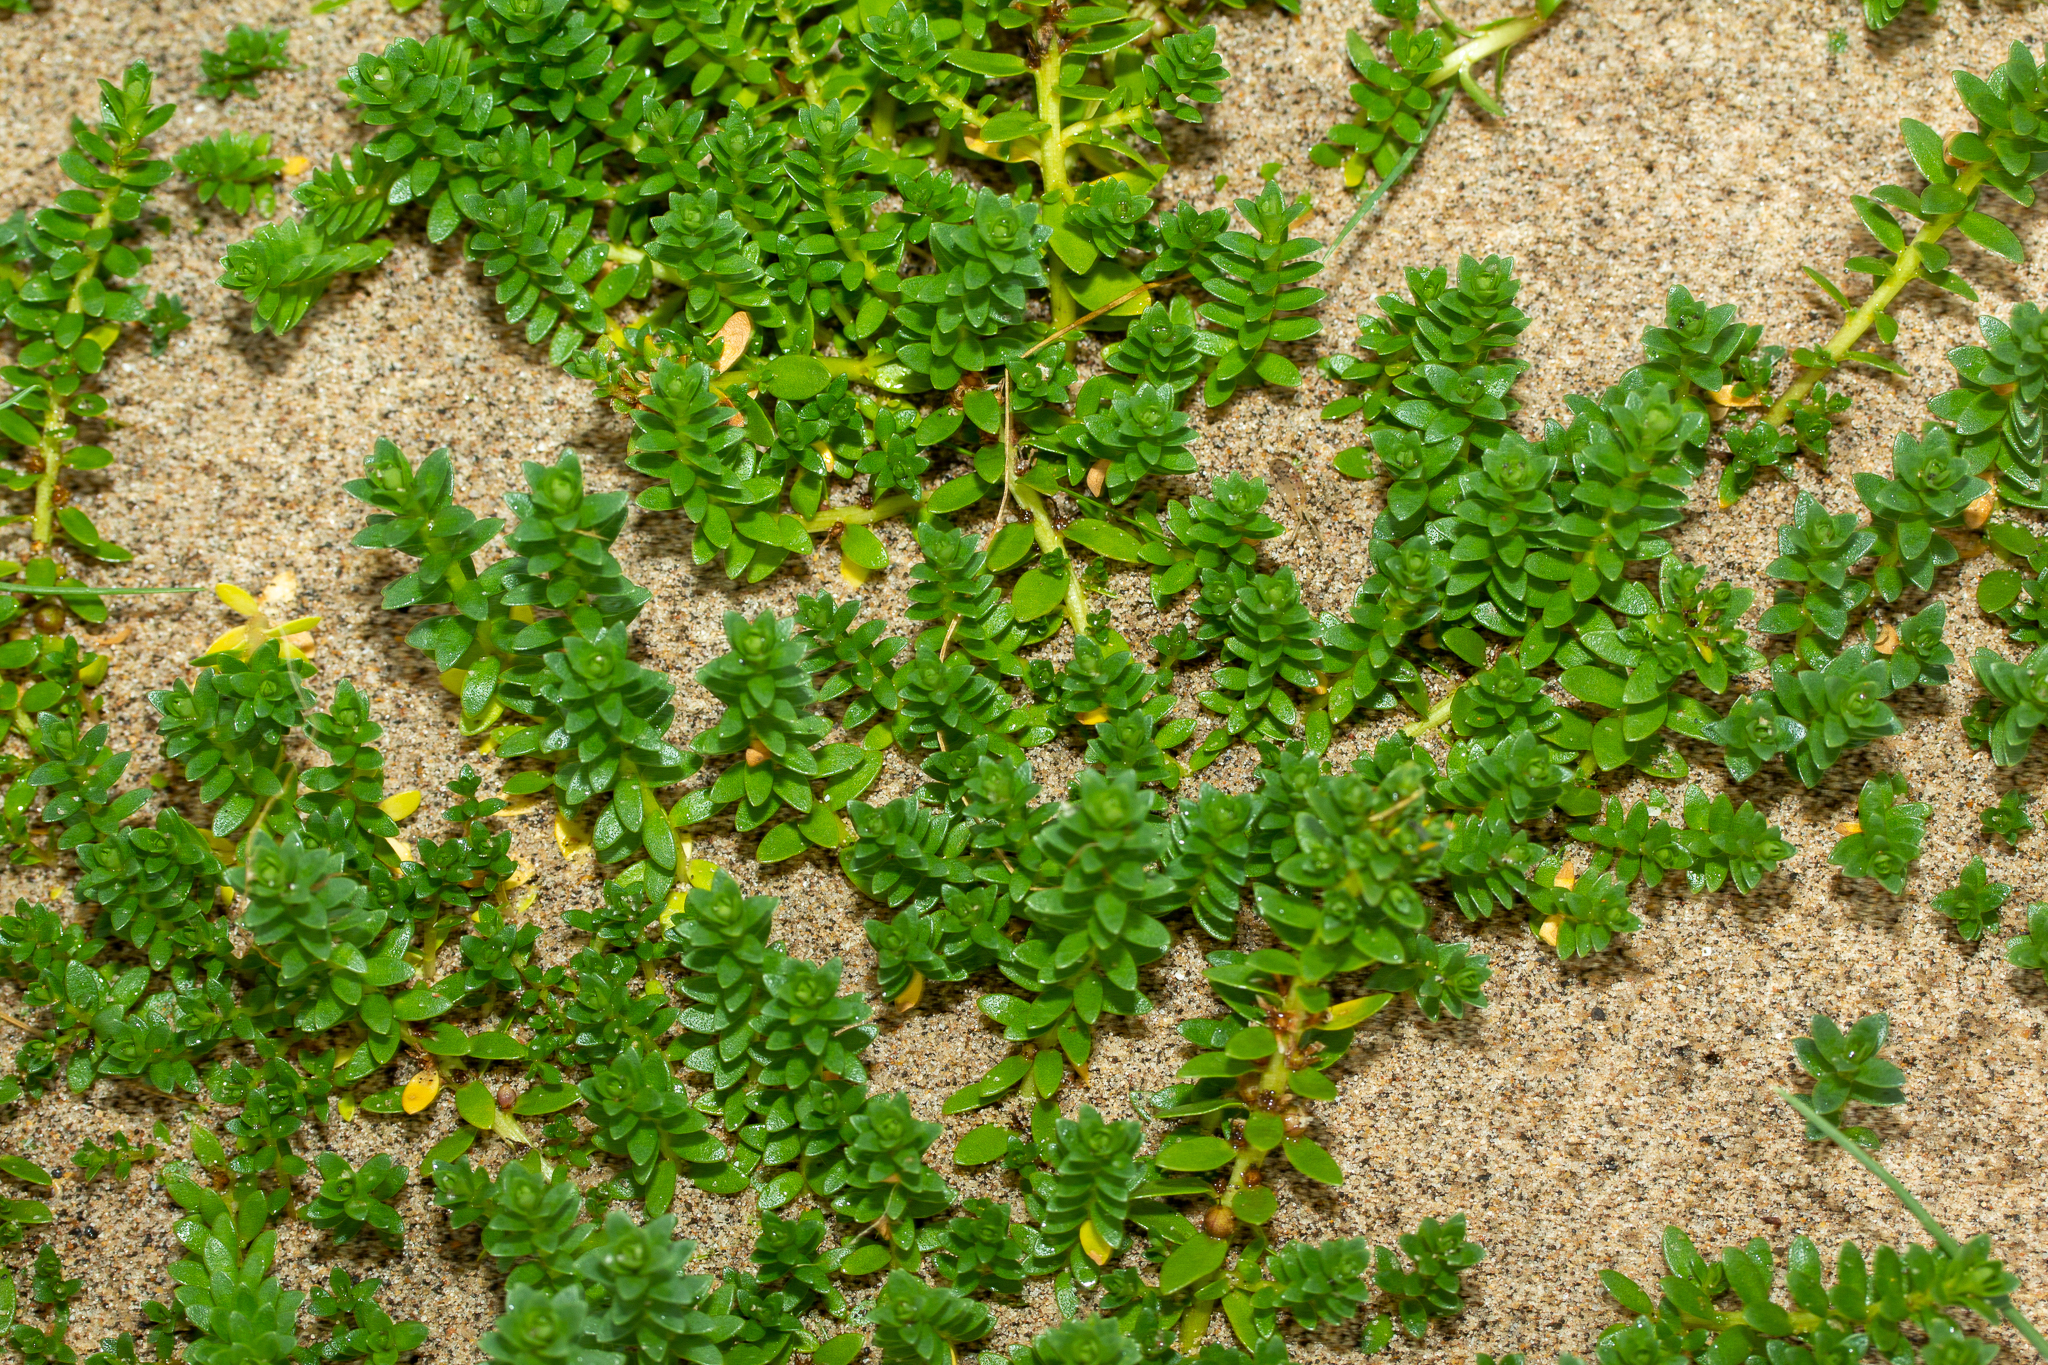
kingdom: Plantae
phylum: Tracheophyta
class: Magnoliopsida
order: Ericales
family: Primulaceae
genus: Lysimachia
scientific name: Lysimachia maritima
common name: Sea milkwort
